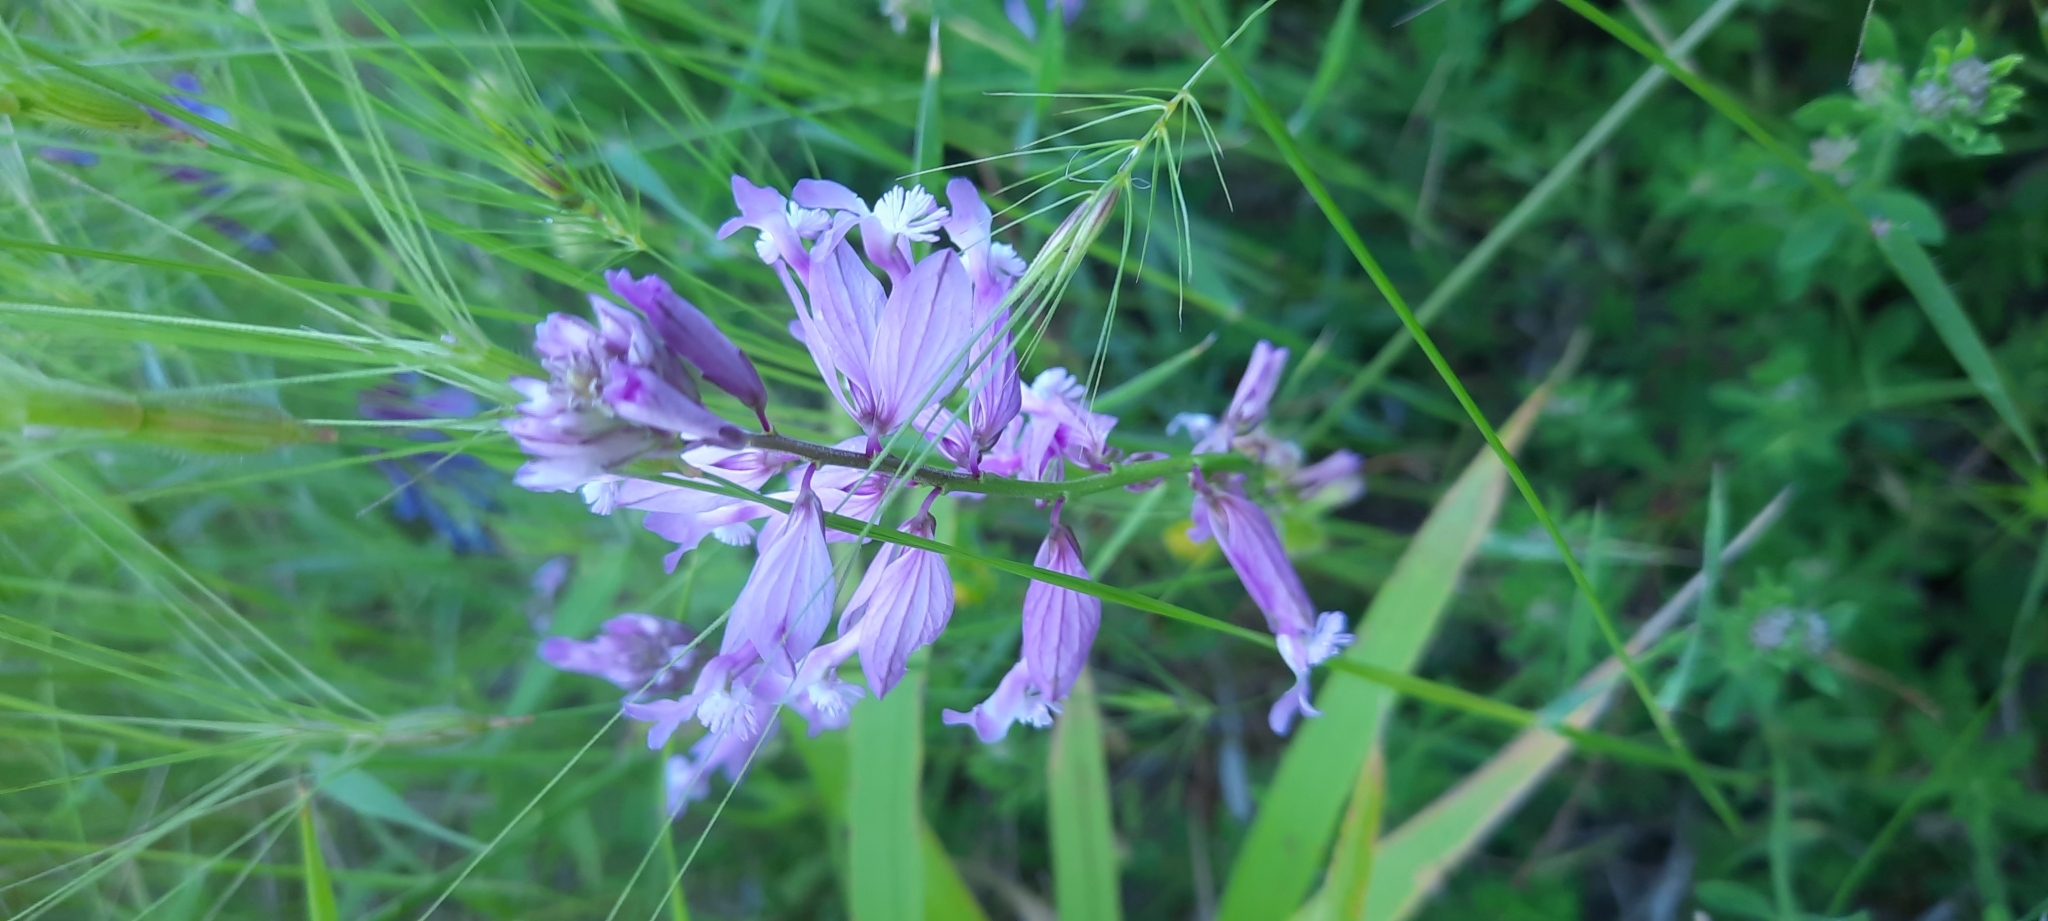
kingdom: Plantae
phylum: Tracheophyta
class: Magnoliopsida
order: Fabales
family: Polygalaceae
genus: Polygala
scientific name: Polygala major
